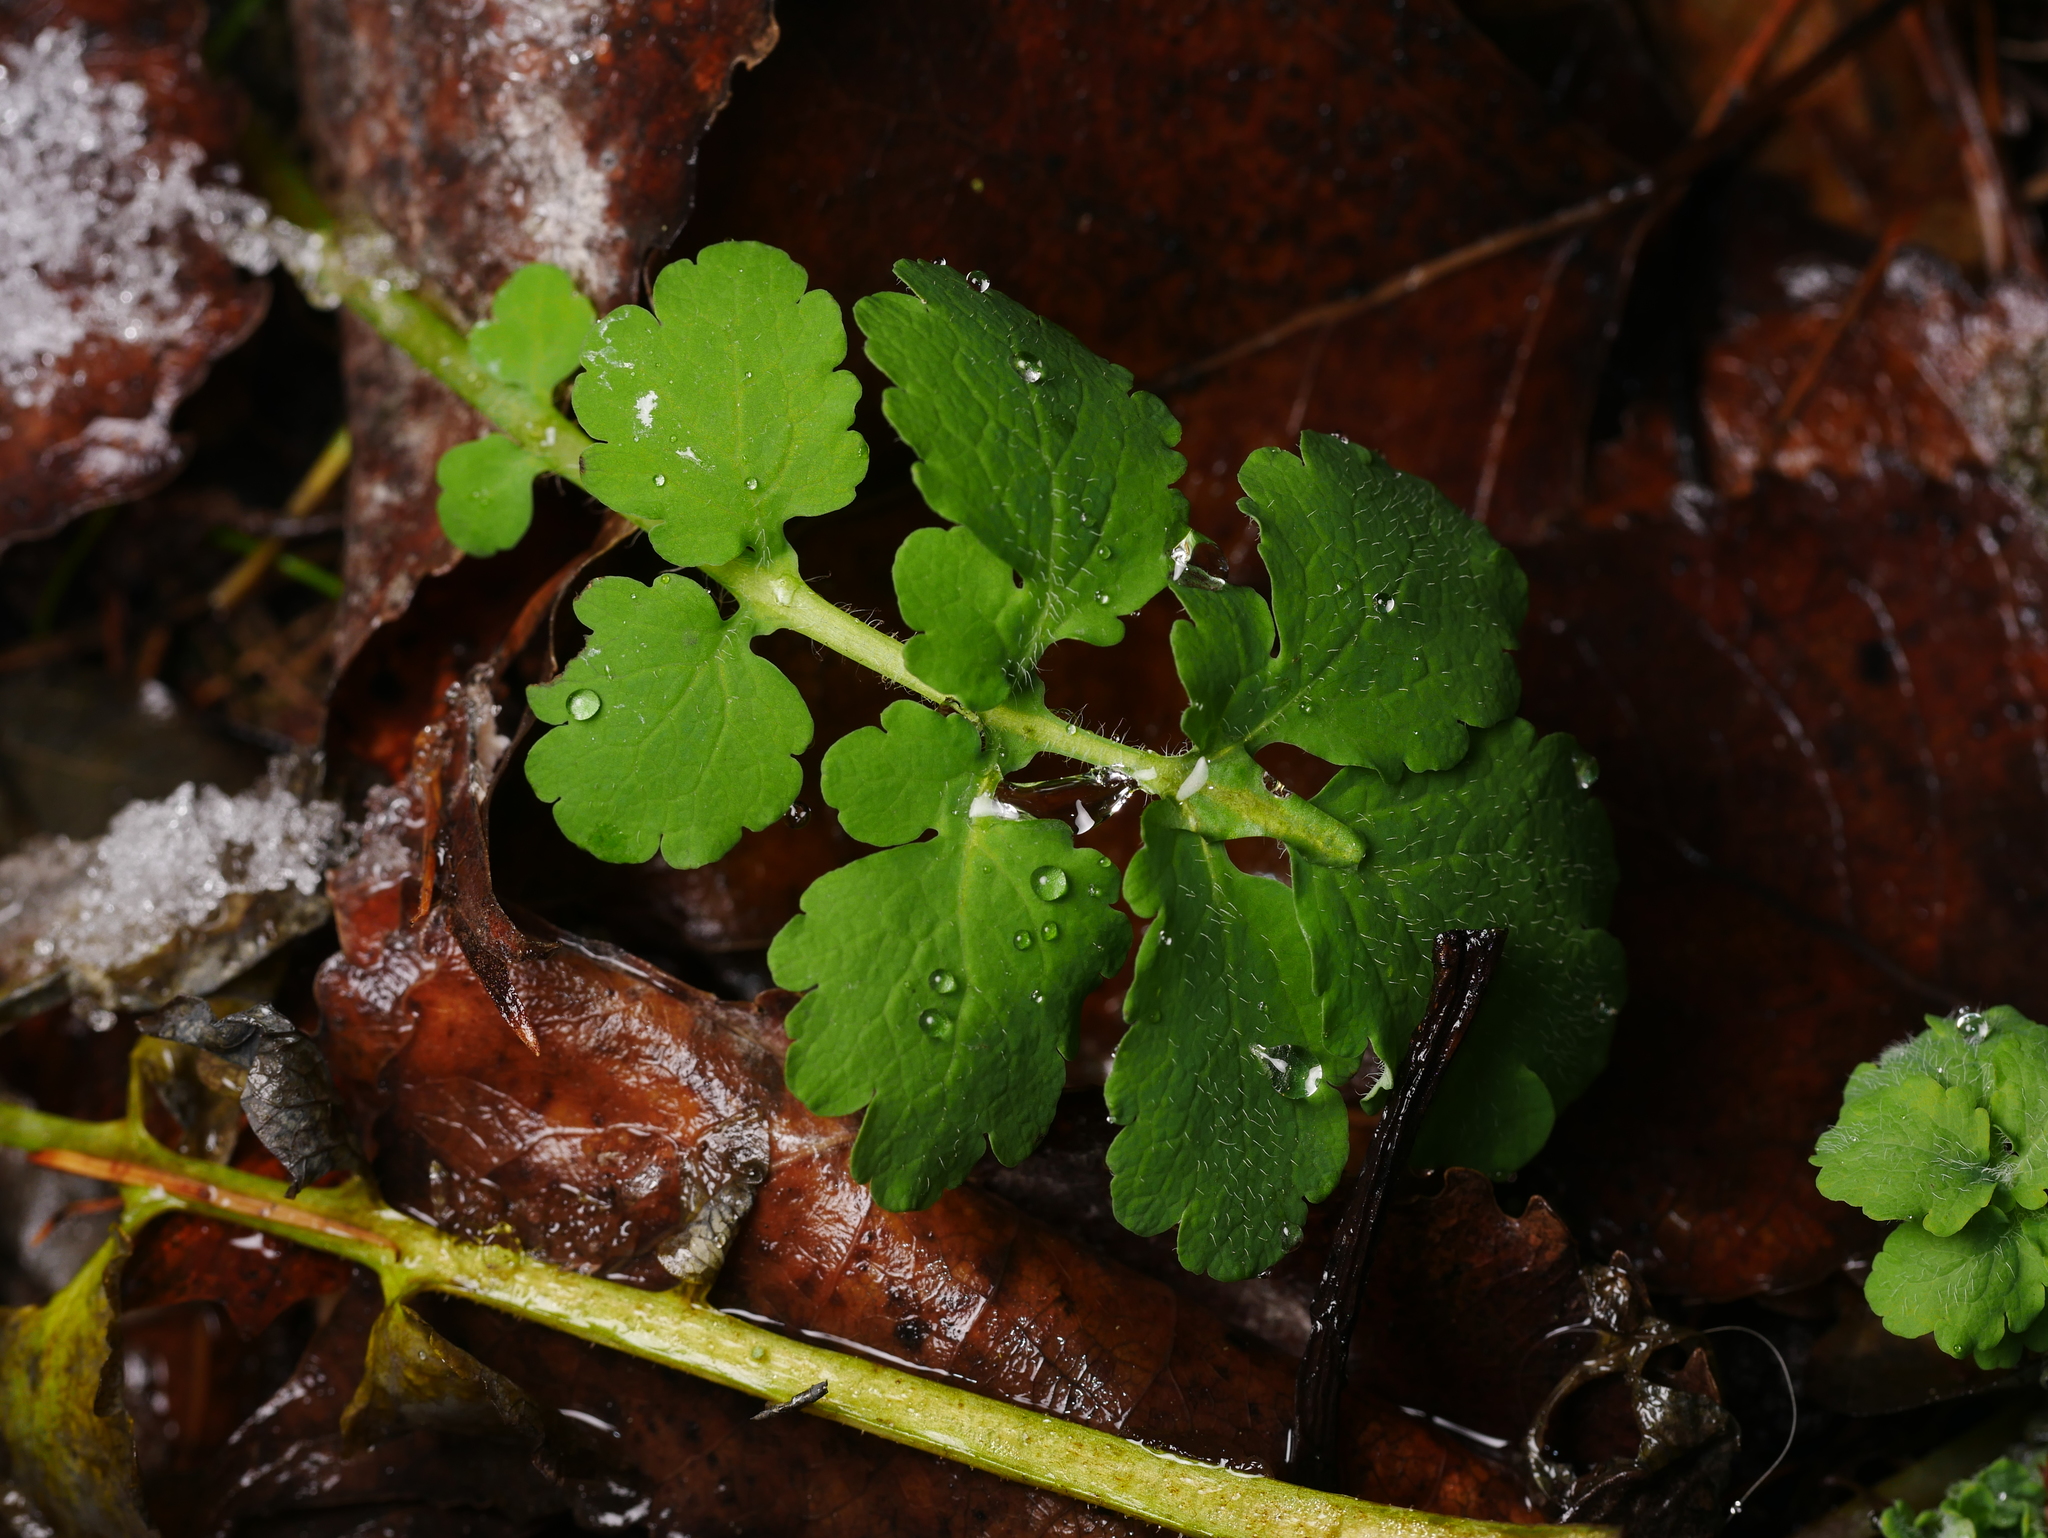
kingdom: Plantae
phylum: Tracheophyta
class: Magnoliopsida
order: Ranunculales
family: Papaveraceae
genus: Chelidonium
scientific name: Chelidonium majus
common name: Greater celandine
